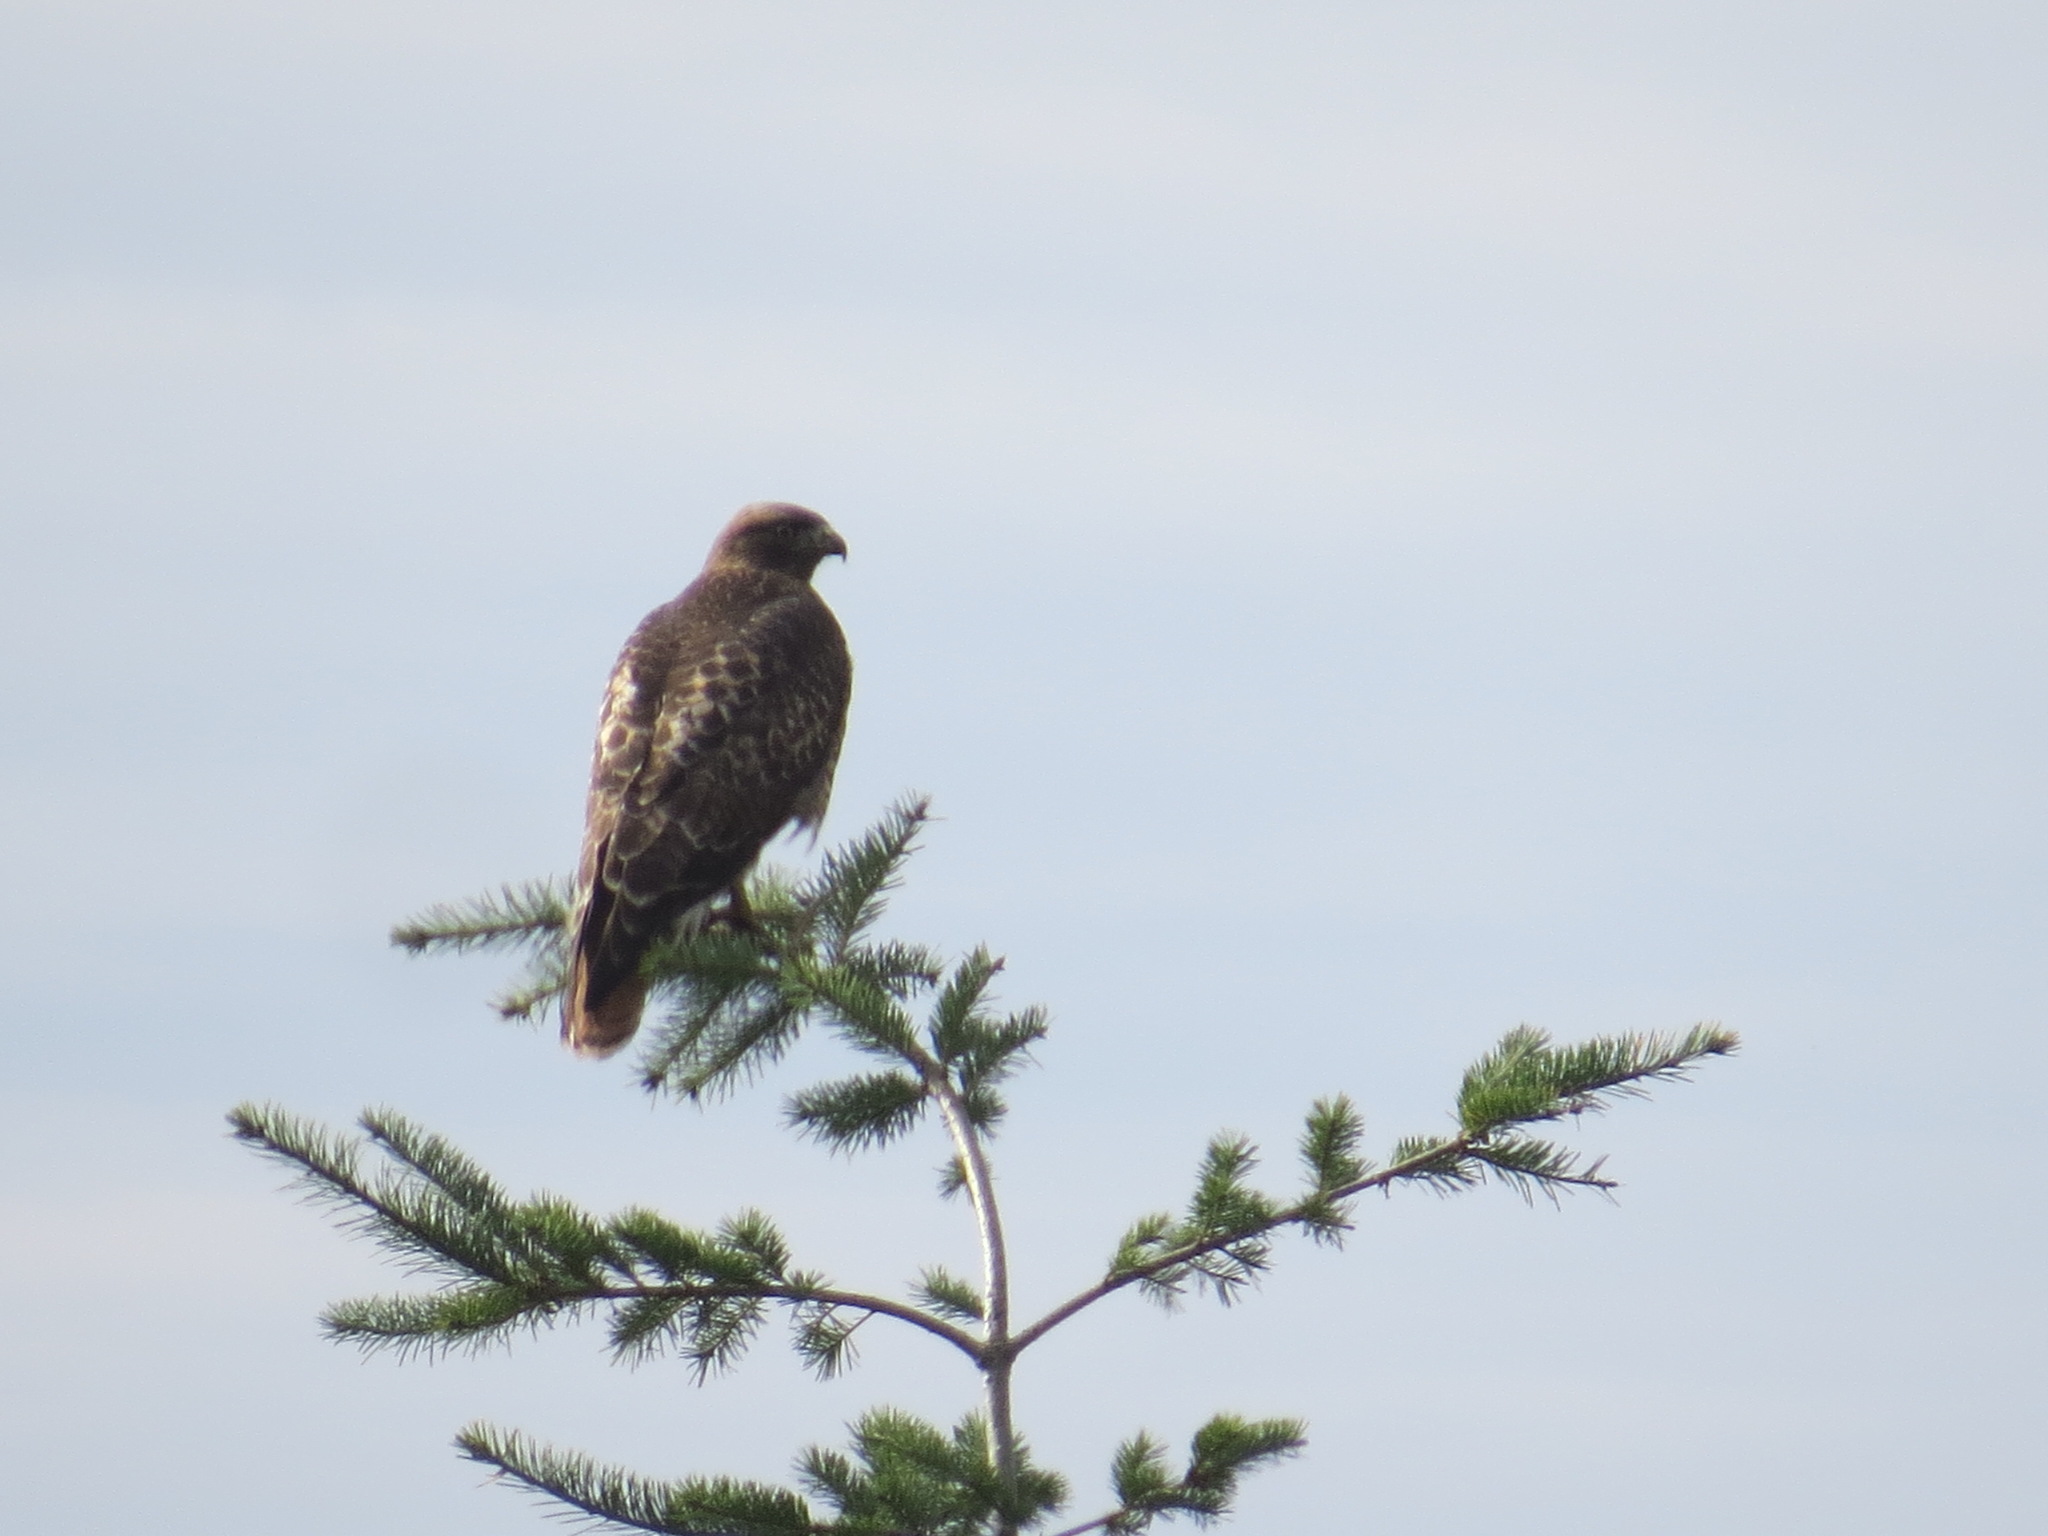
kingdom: Animalia
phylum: Chordata
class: Aves
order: Accipitriformes
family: Accipitridae
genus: Buteo
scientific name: Buteo jamaicensis
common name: Red-tailed hawk
